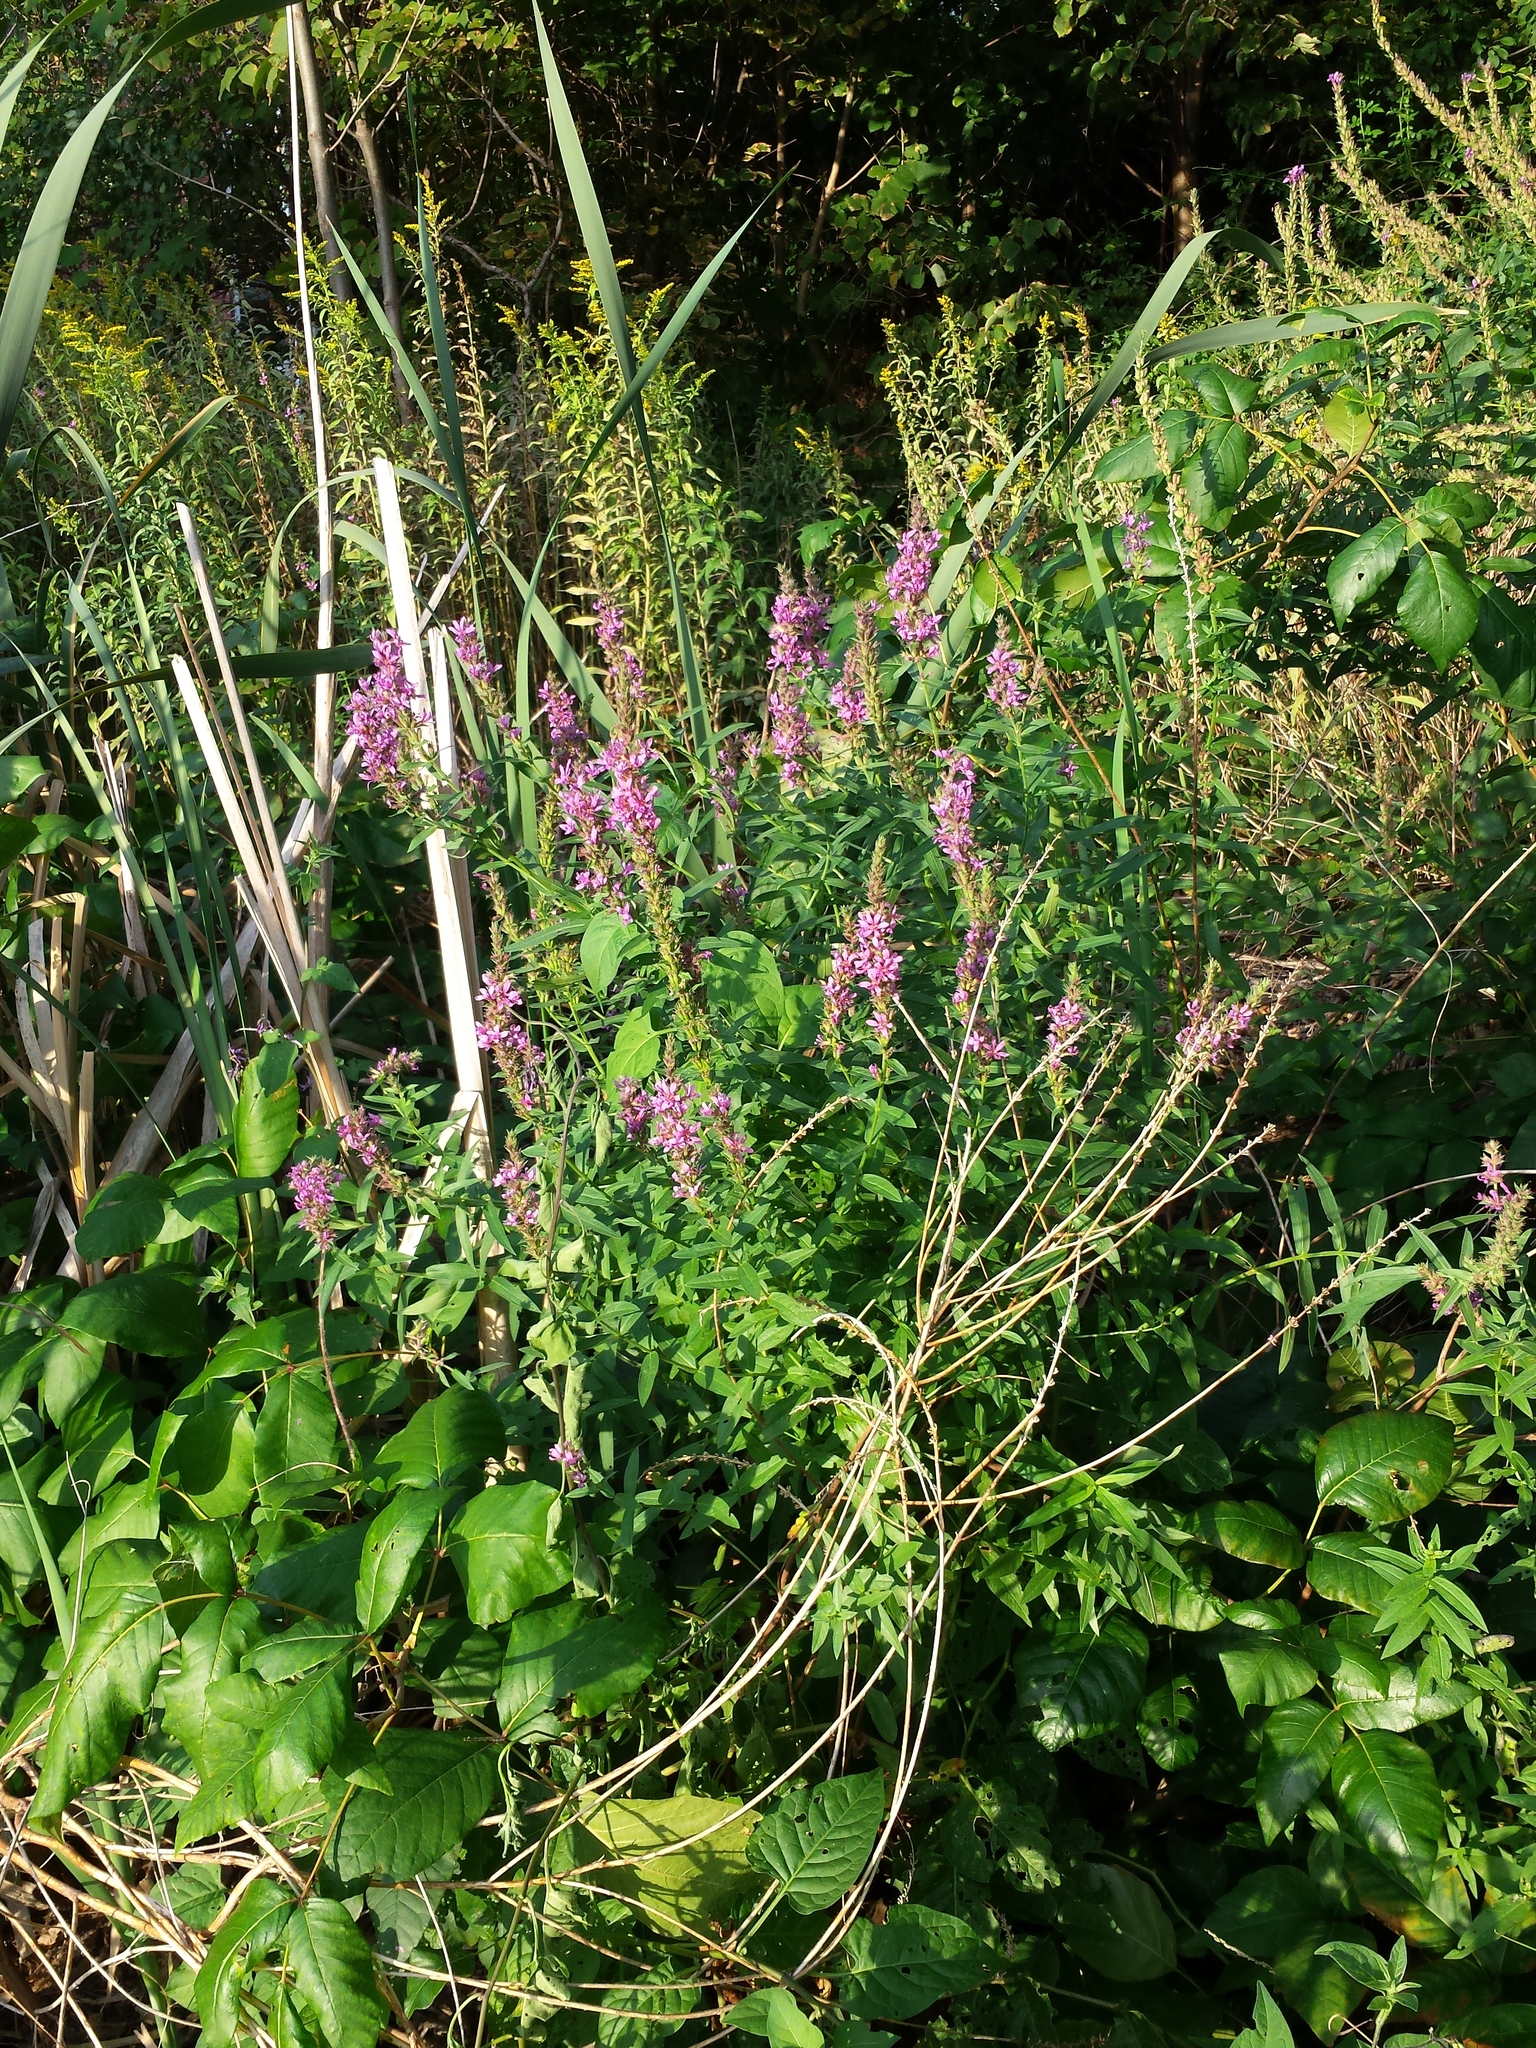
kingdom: Plantae
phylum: Tracheophyta
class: Magnoliopsida
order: Myrtales
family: Lythraceae
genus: Lythrum
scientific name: Lythrum salicaria
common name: Purple loosestrife
